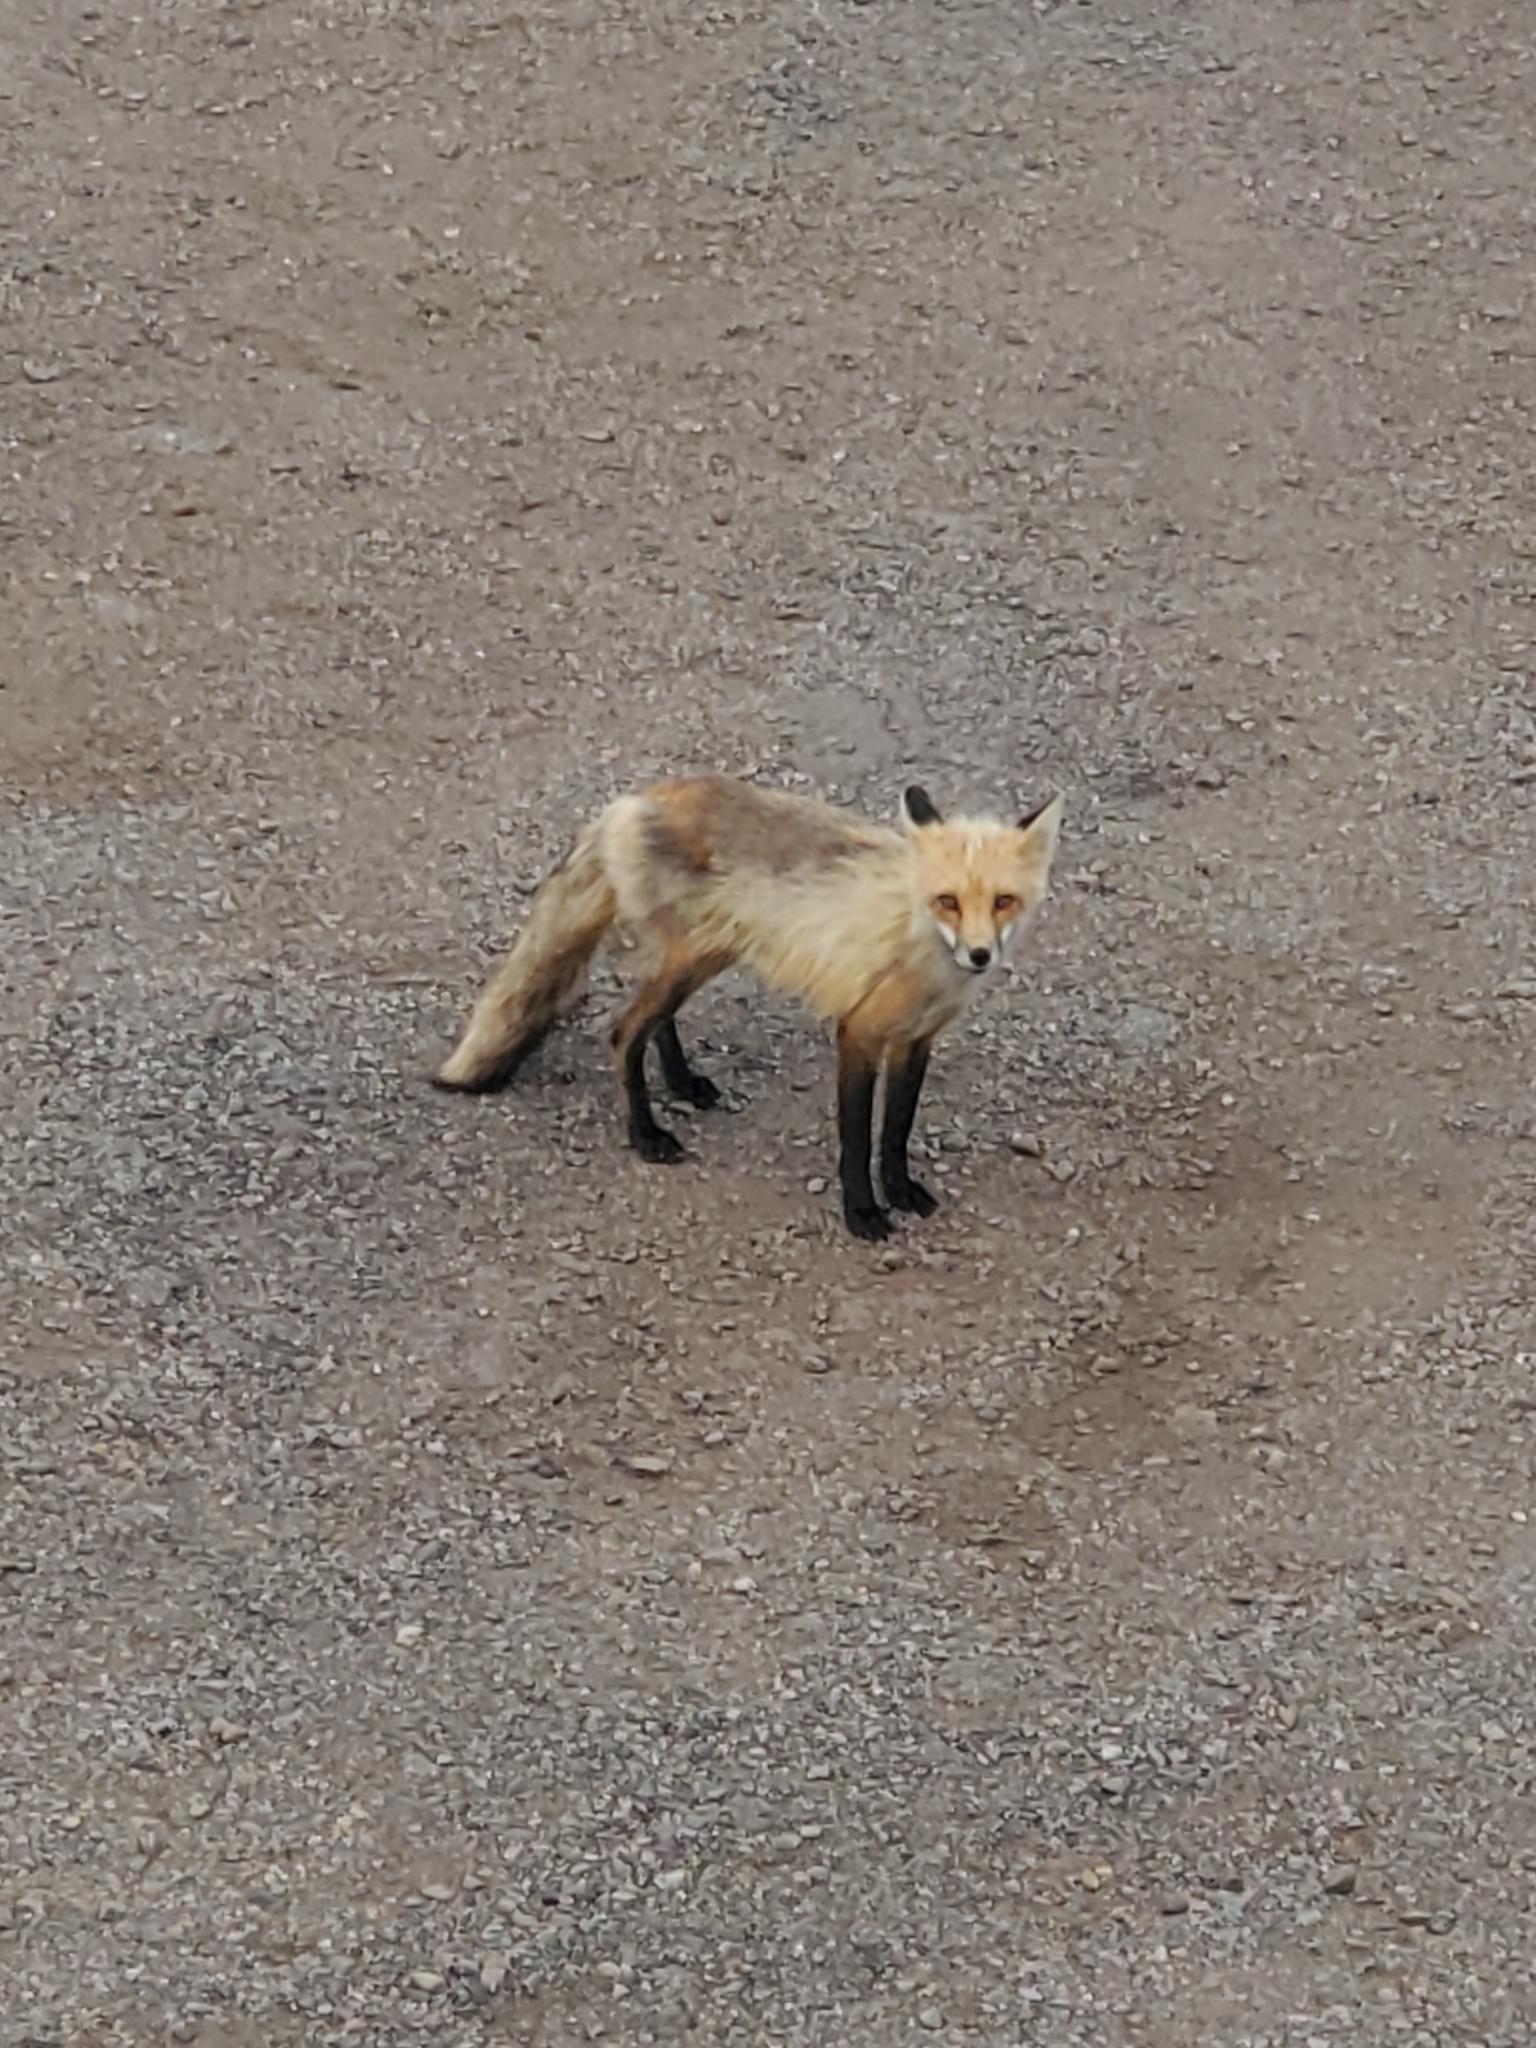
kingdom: Animalia
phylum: Chordata
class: Mammalia
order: Carnivora
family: Canidae
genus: Vulpes
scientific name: Vulpes vulpes
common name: Red fox
